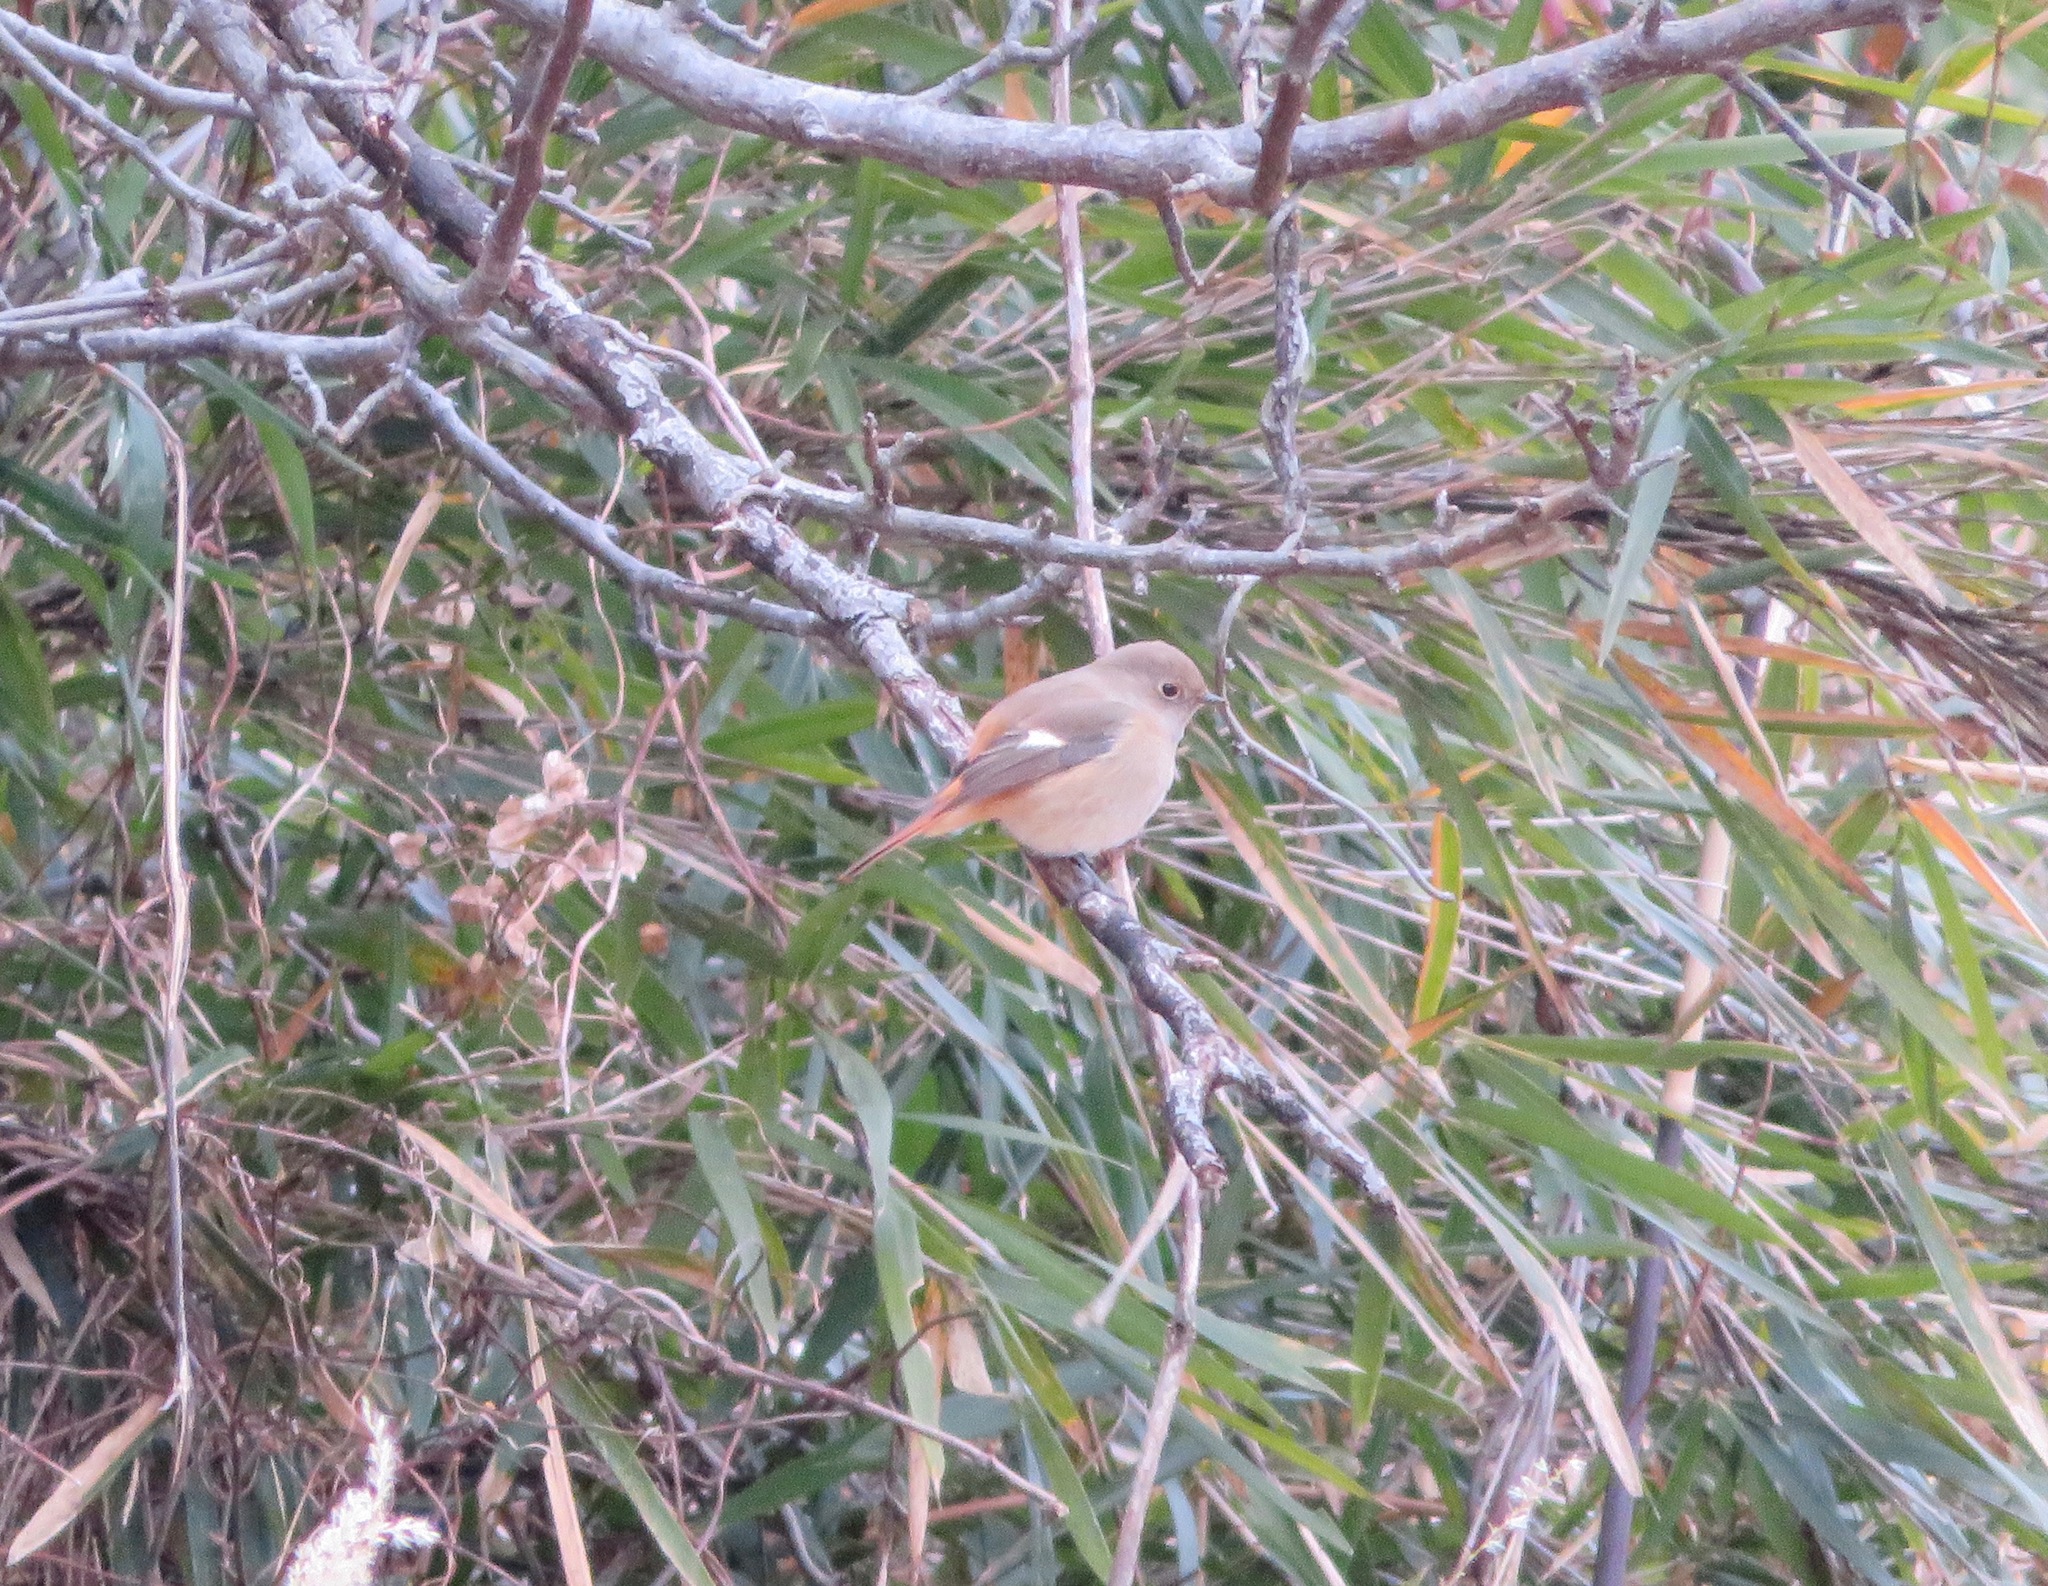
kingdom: Animalia
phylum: Chordata
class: Aves
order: Passeriformes
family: Muscicapidae
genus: Phoenicurus
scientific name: Phoenicurus auroreus
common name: Daurian redstart
